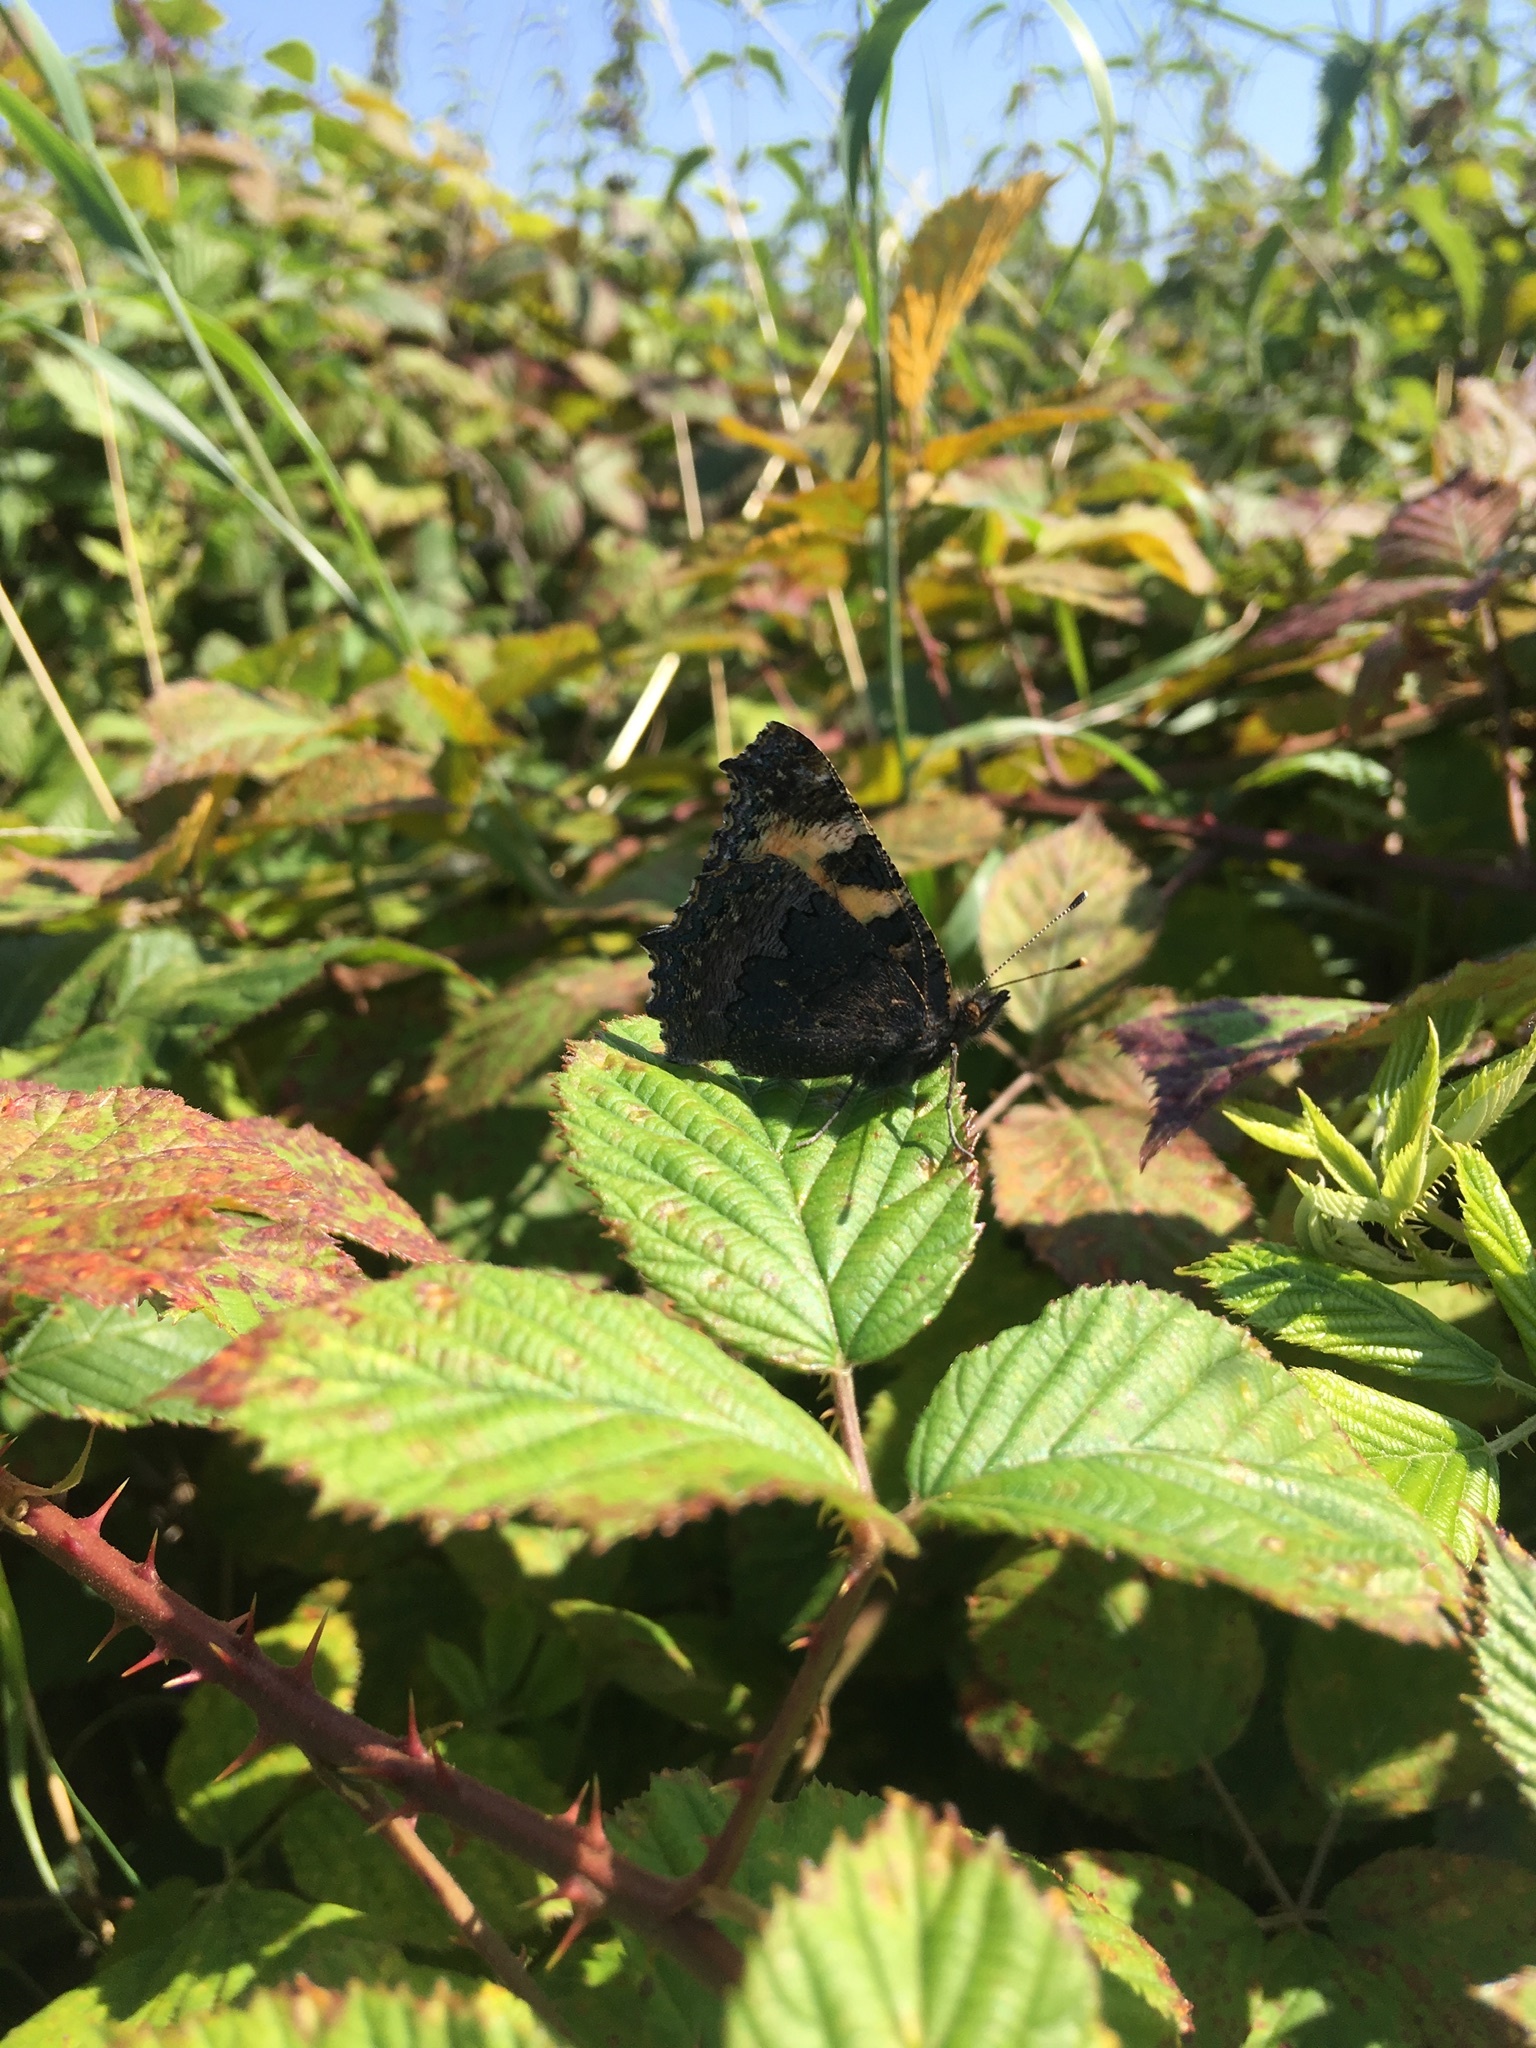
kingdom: Animalia
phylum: Arthropoda
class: Insecta
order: Lepidoptera
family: Nymphalidae
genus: Aglais
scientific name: Aglais urticae
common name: Small tortoiseshell
